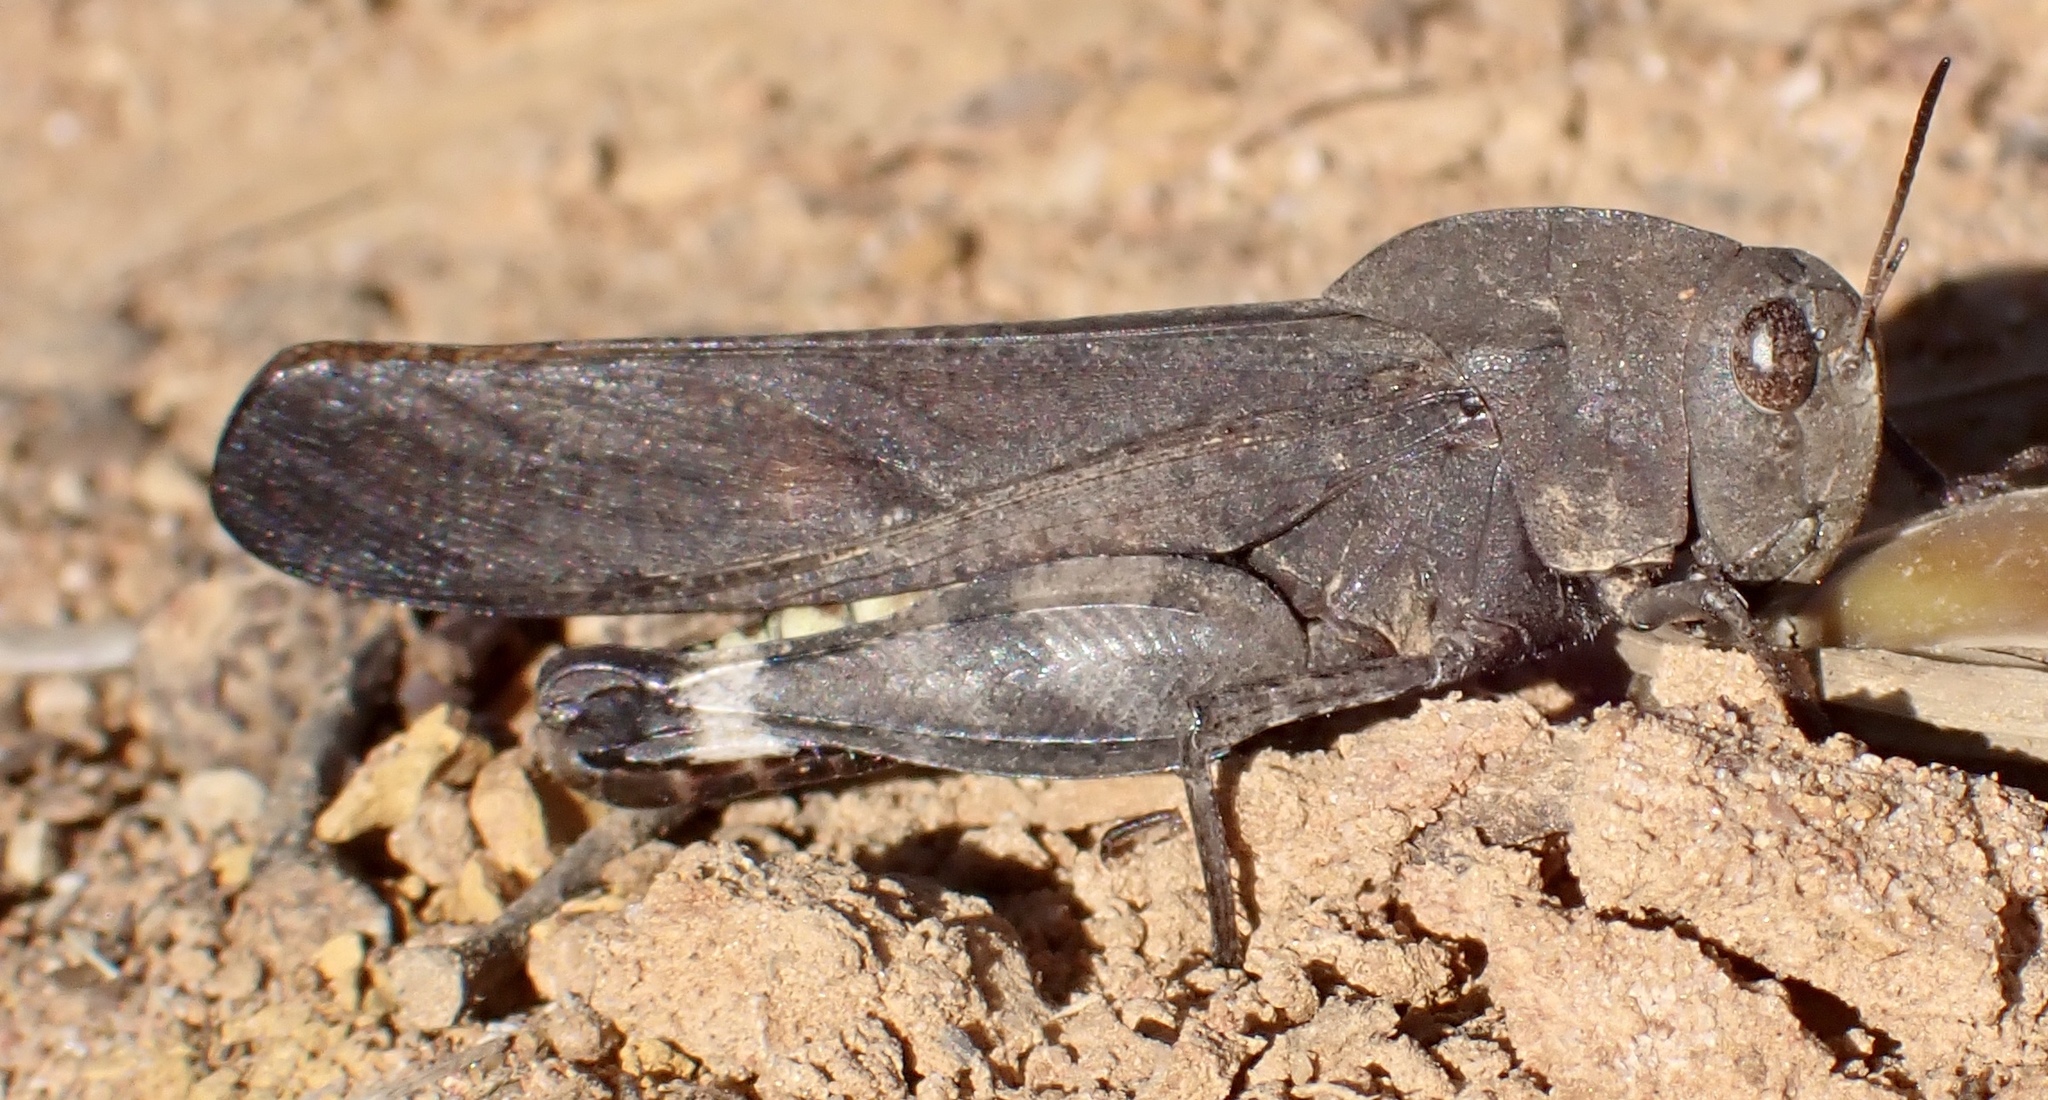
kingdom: Animalia
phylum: Arthropoda
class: Insecta
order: Orthoptera
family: Acrididae
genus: Arphia
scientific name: Arphia xanthoptera
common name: Autumn yellow-winged grasshopper
